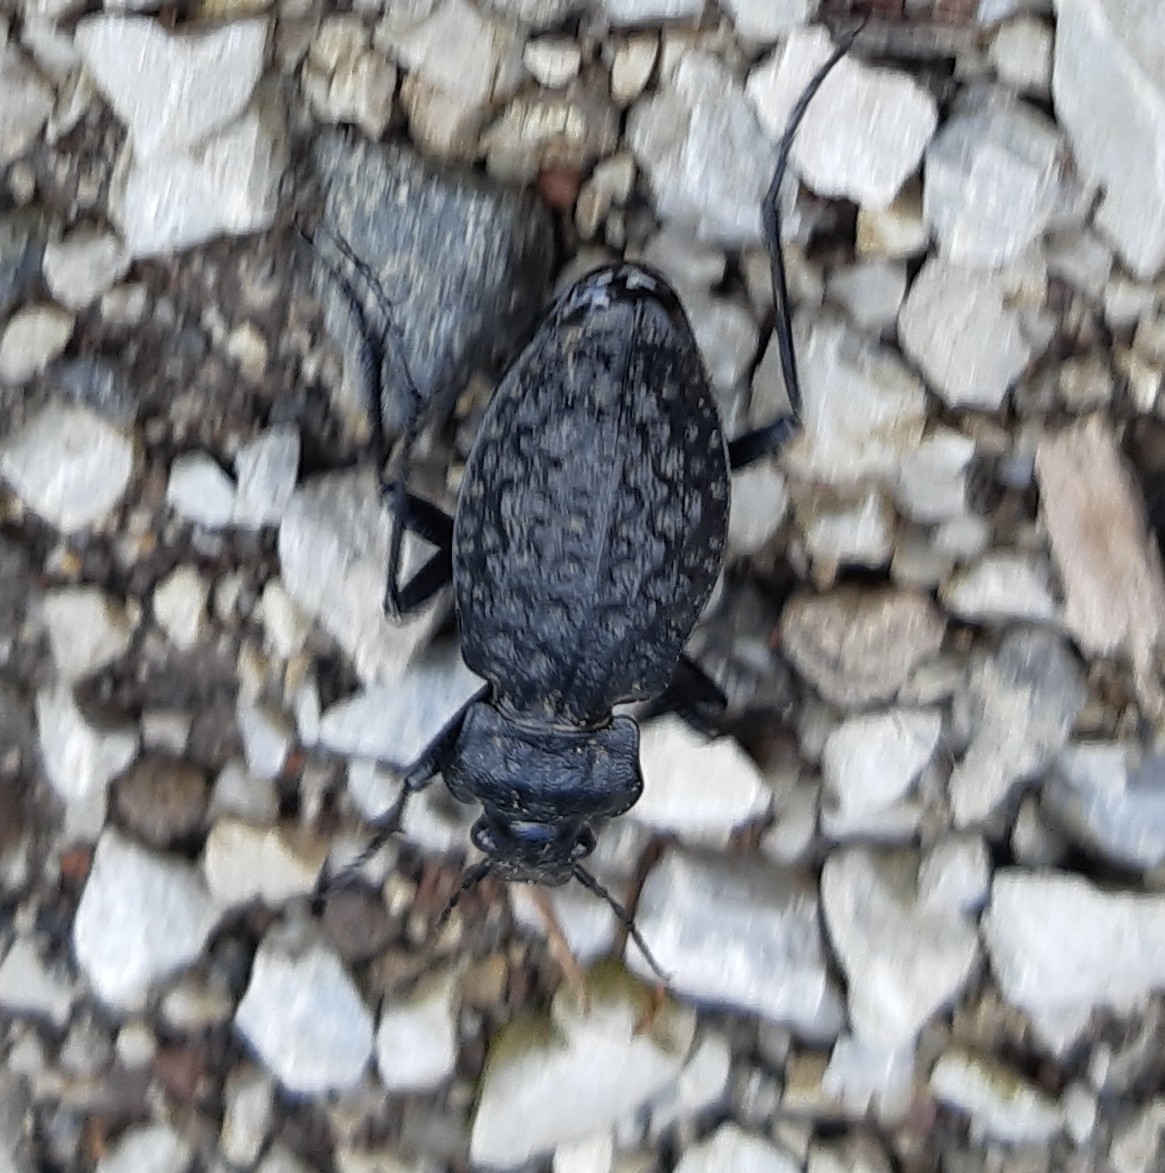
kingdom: Animalia
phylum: Arthropoda
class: Insecta
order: Coleoptera
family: Carabidae
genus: Carabus
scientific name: Carabus variolosus
